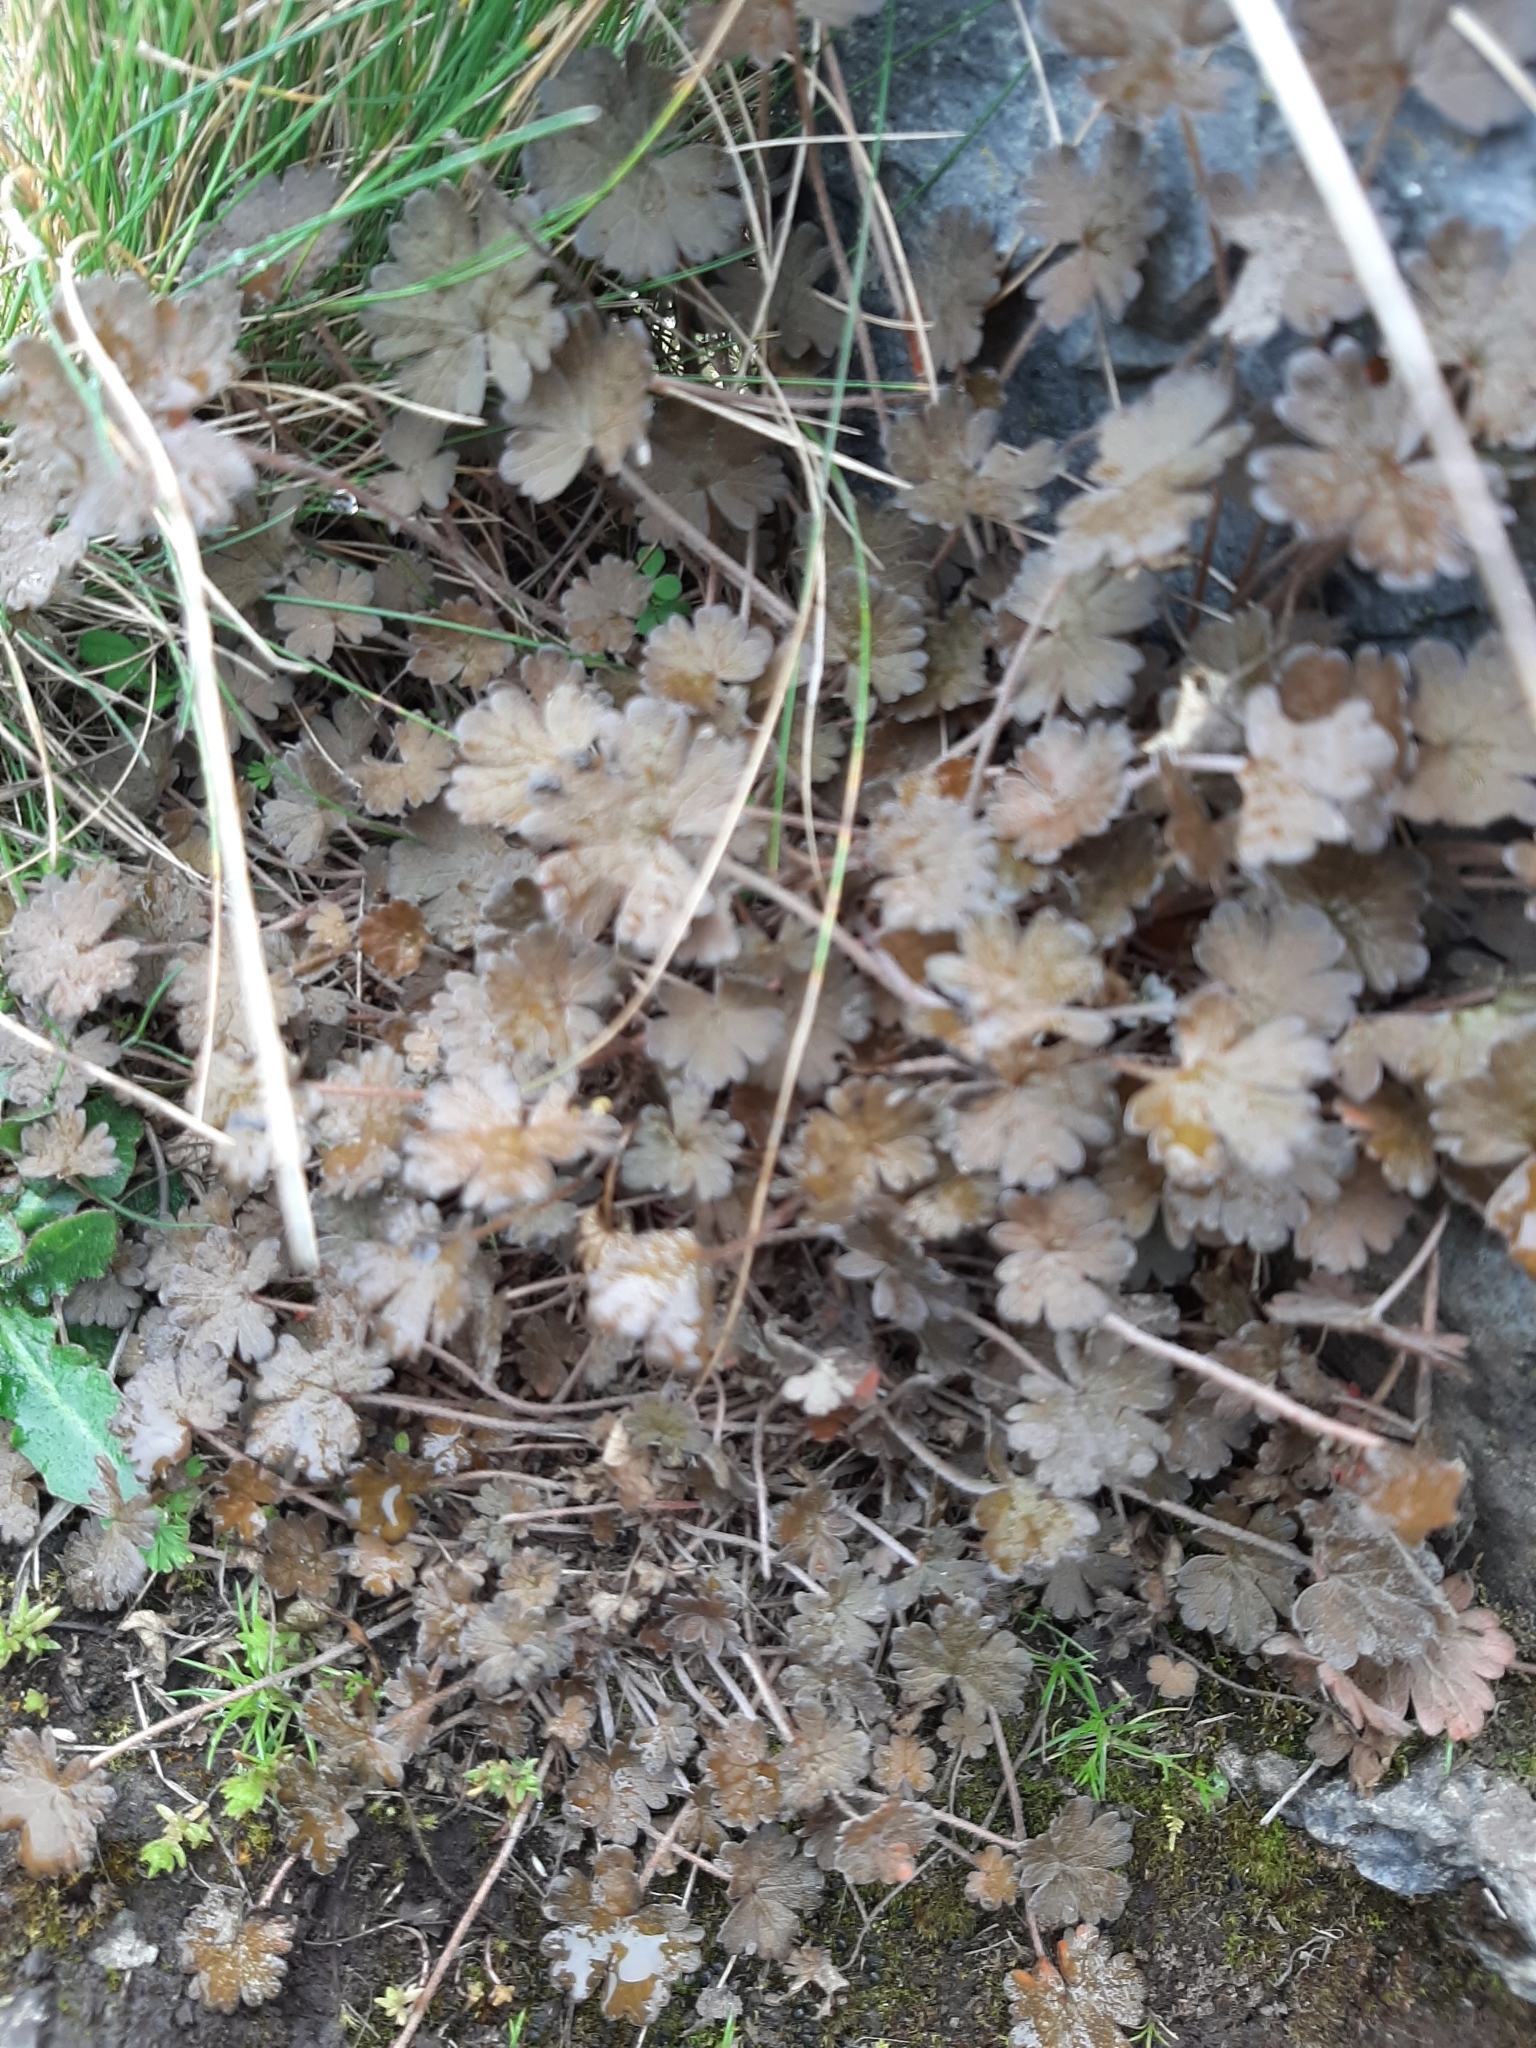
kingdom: Plantae
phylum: Tracheophyta
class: Magnoliopsida
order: Geraniales
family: Geraniaceae
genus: Geranium
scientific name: Geranium brevicaule
